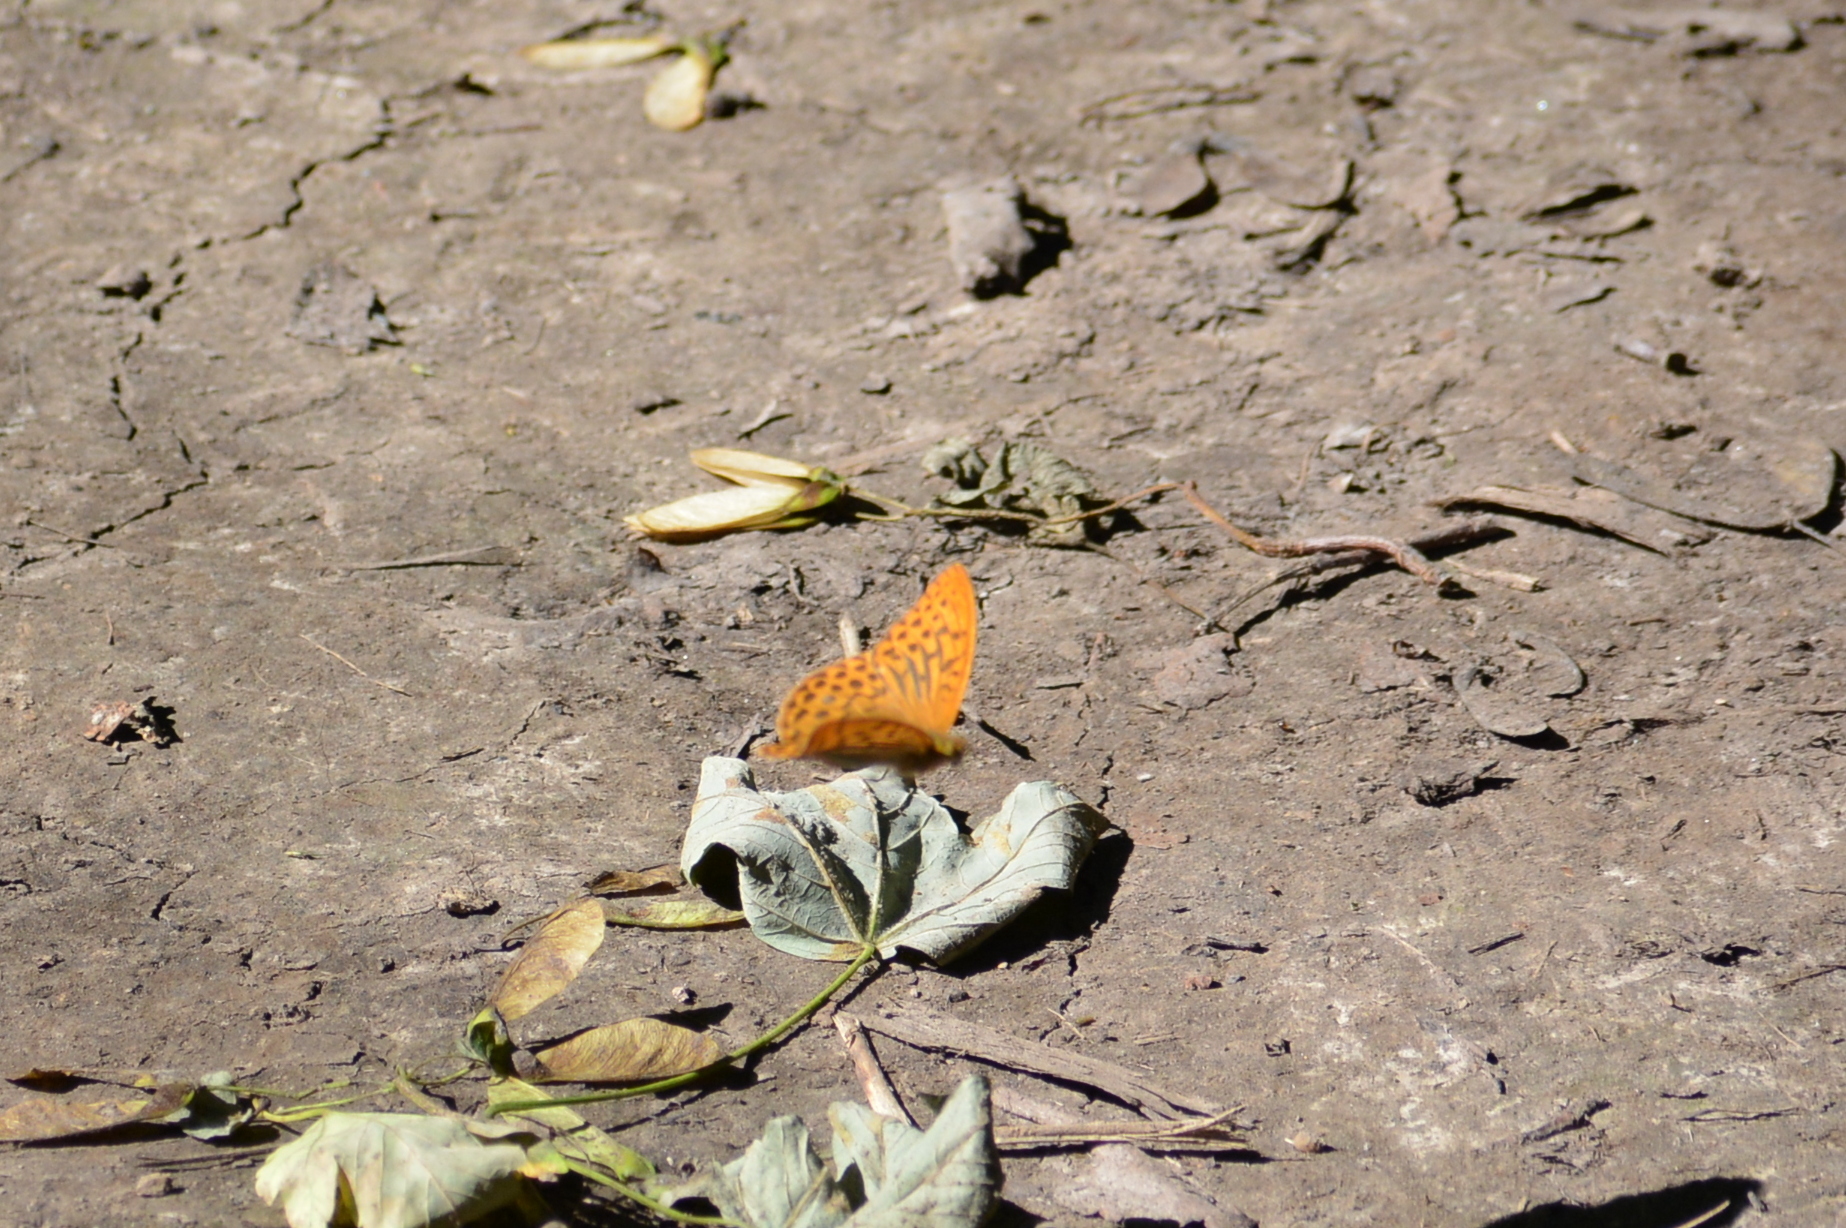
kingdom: Animalia
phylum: Arthropoda
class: Insecta
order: Lepidoptera
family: Nymphalidae
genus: Argynnis
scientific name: Argynnis paphia
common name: Silver-washed fritillary
